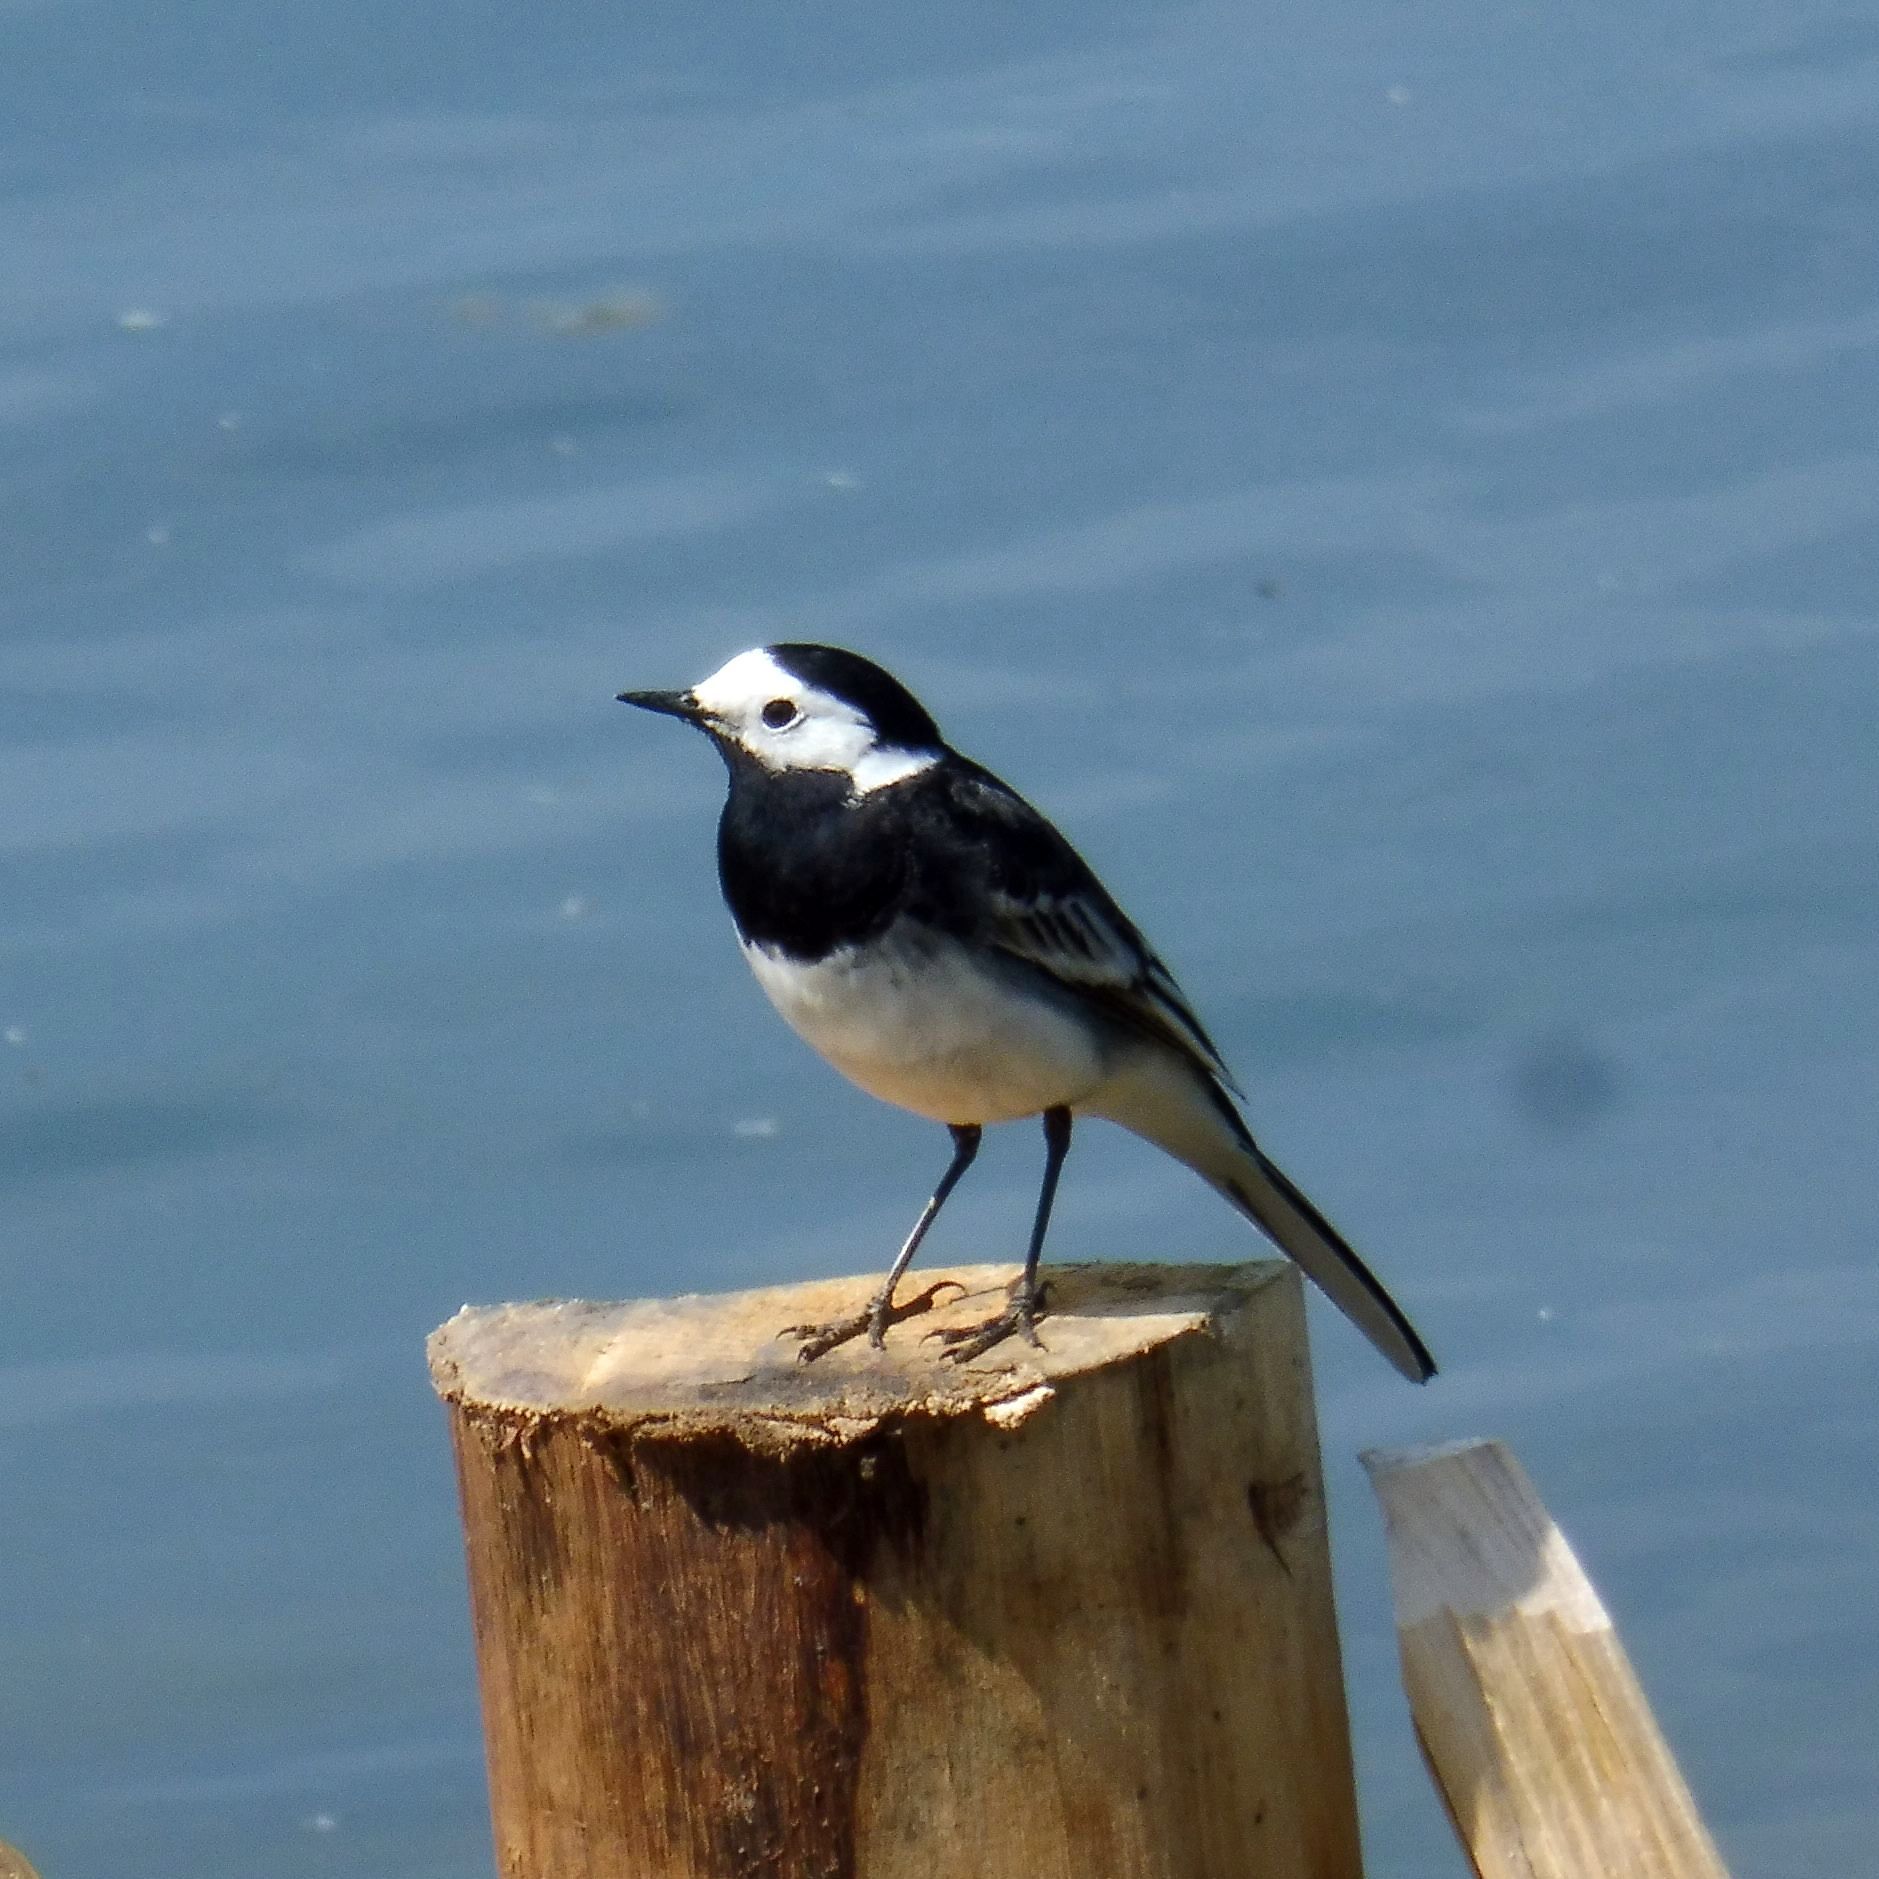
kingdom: Animalia
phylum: Chordata
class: Aves
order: Passeriformes
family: Motacillidae
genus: Motacilla
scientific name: Motacilla alba
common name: White wagtail
